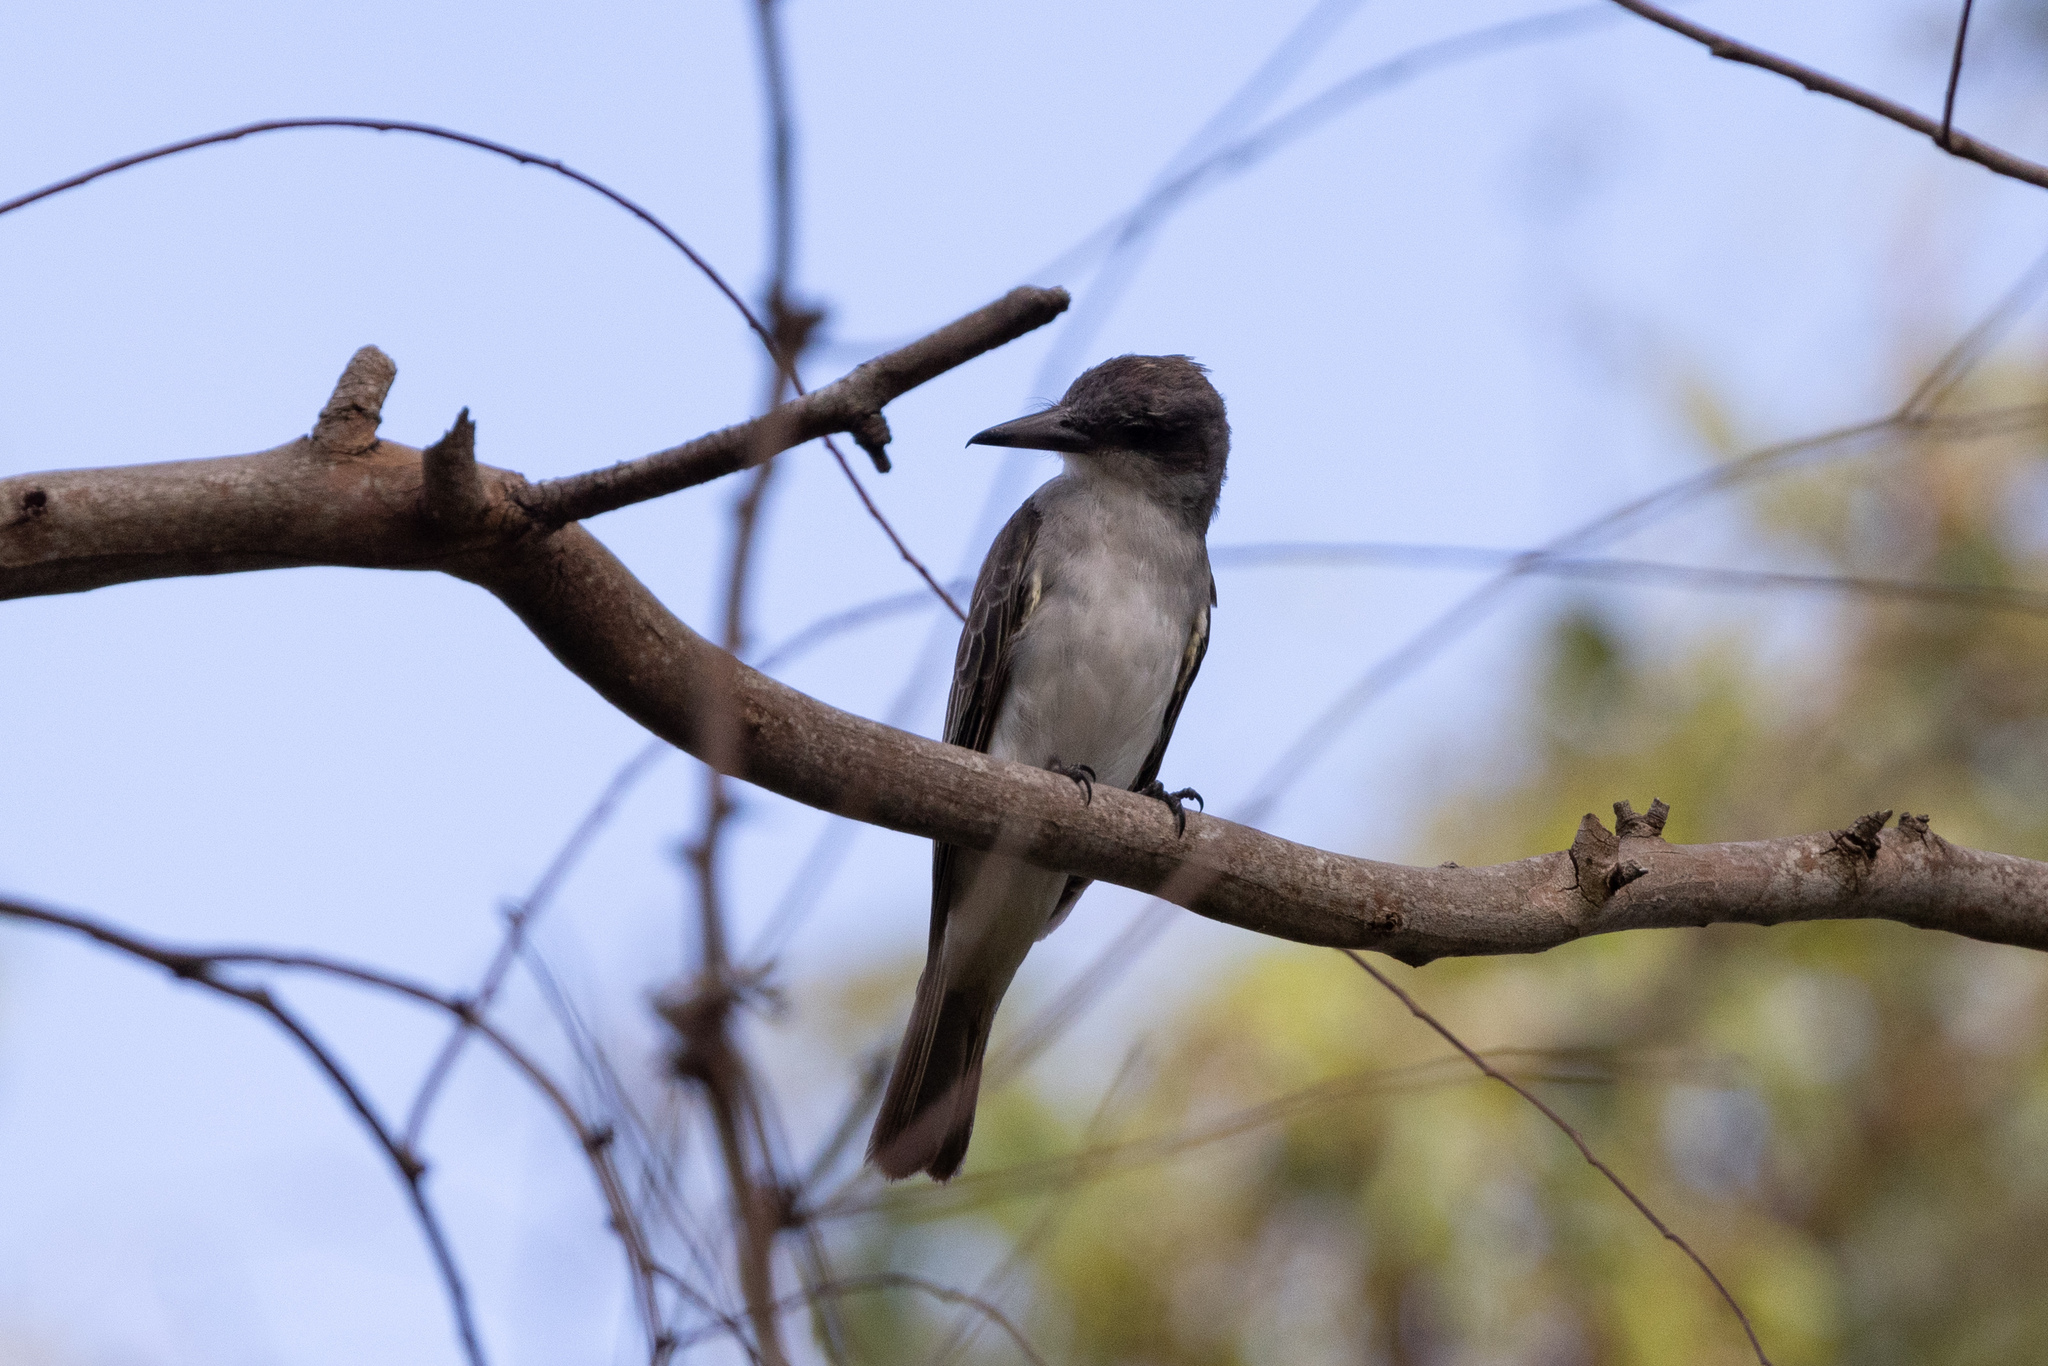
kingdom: Animalia
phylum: Chordata
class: Aves
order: Passeriformes
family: Tyrannidae
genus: Tyrannus
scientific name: Tyrannus dominicensis
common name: Gray kingbird
